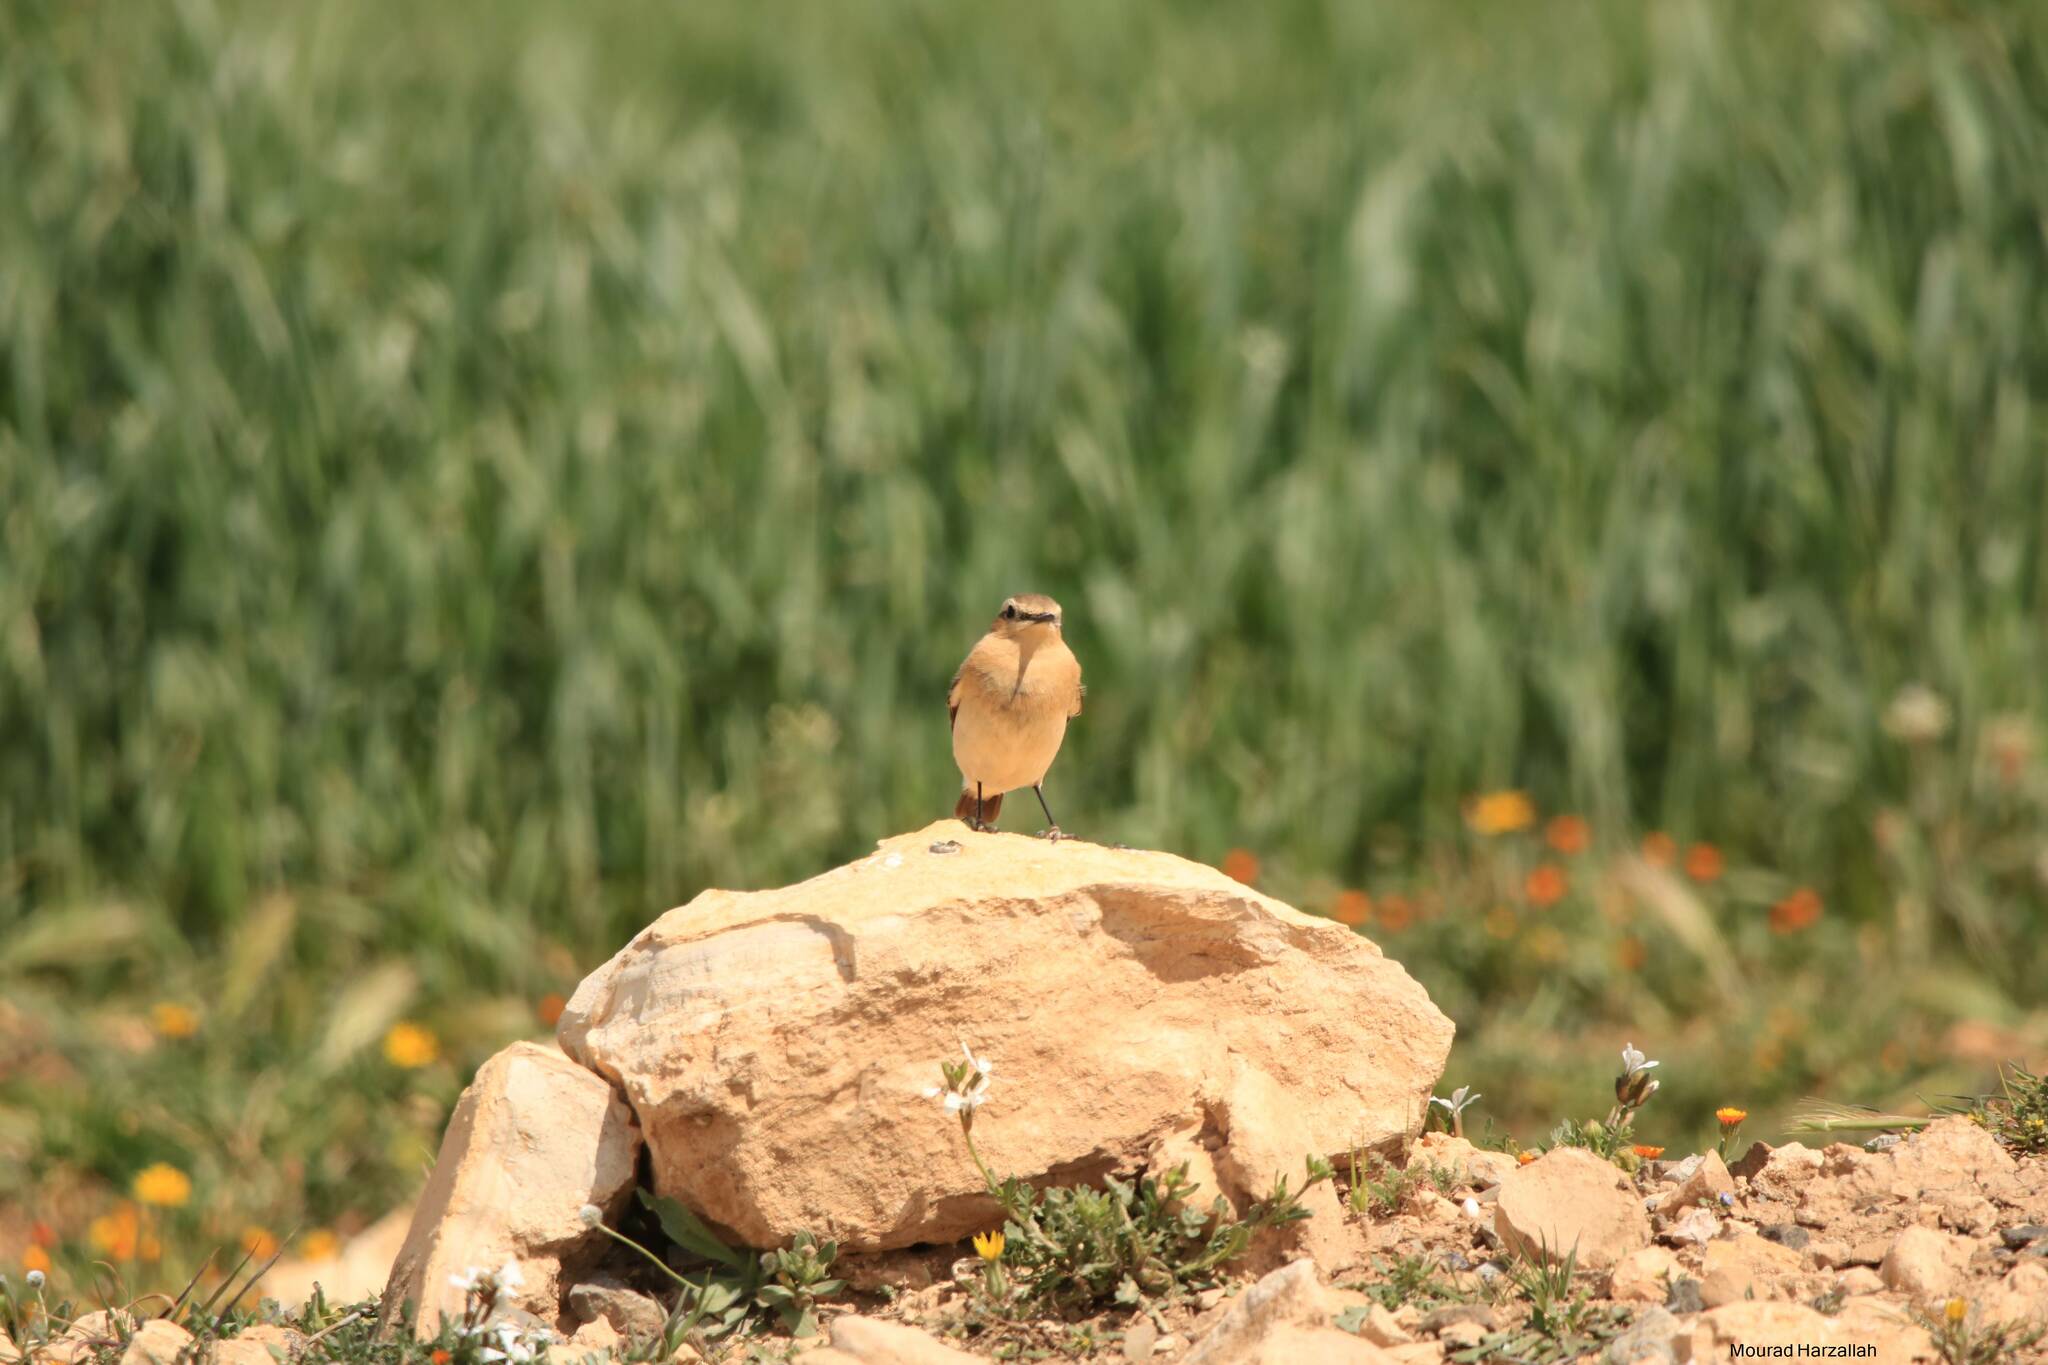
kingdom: Animalia
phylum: Chordata
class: Aves
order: Passeriformes
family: Muscicapidae
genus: Oenanthe
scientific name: Oenanthe oenanthe
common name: Northern wheatear
